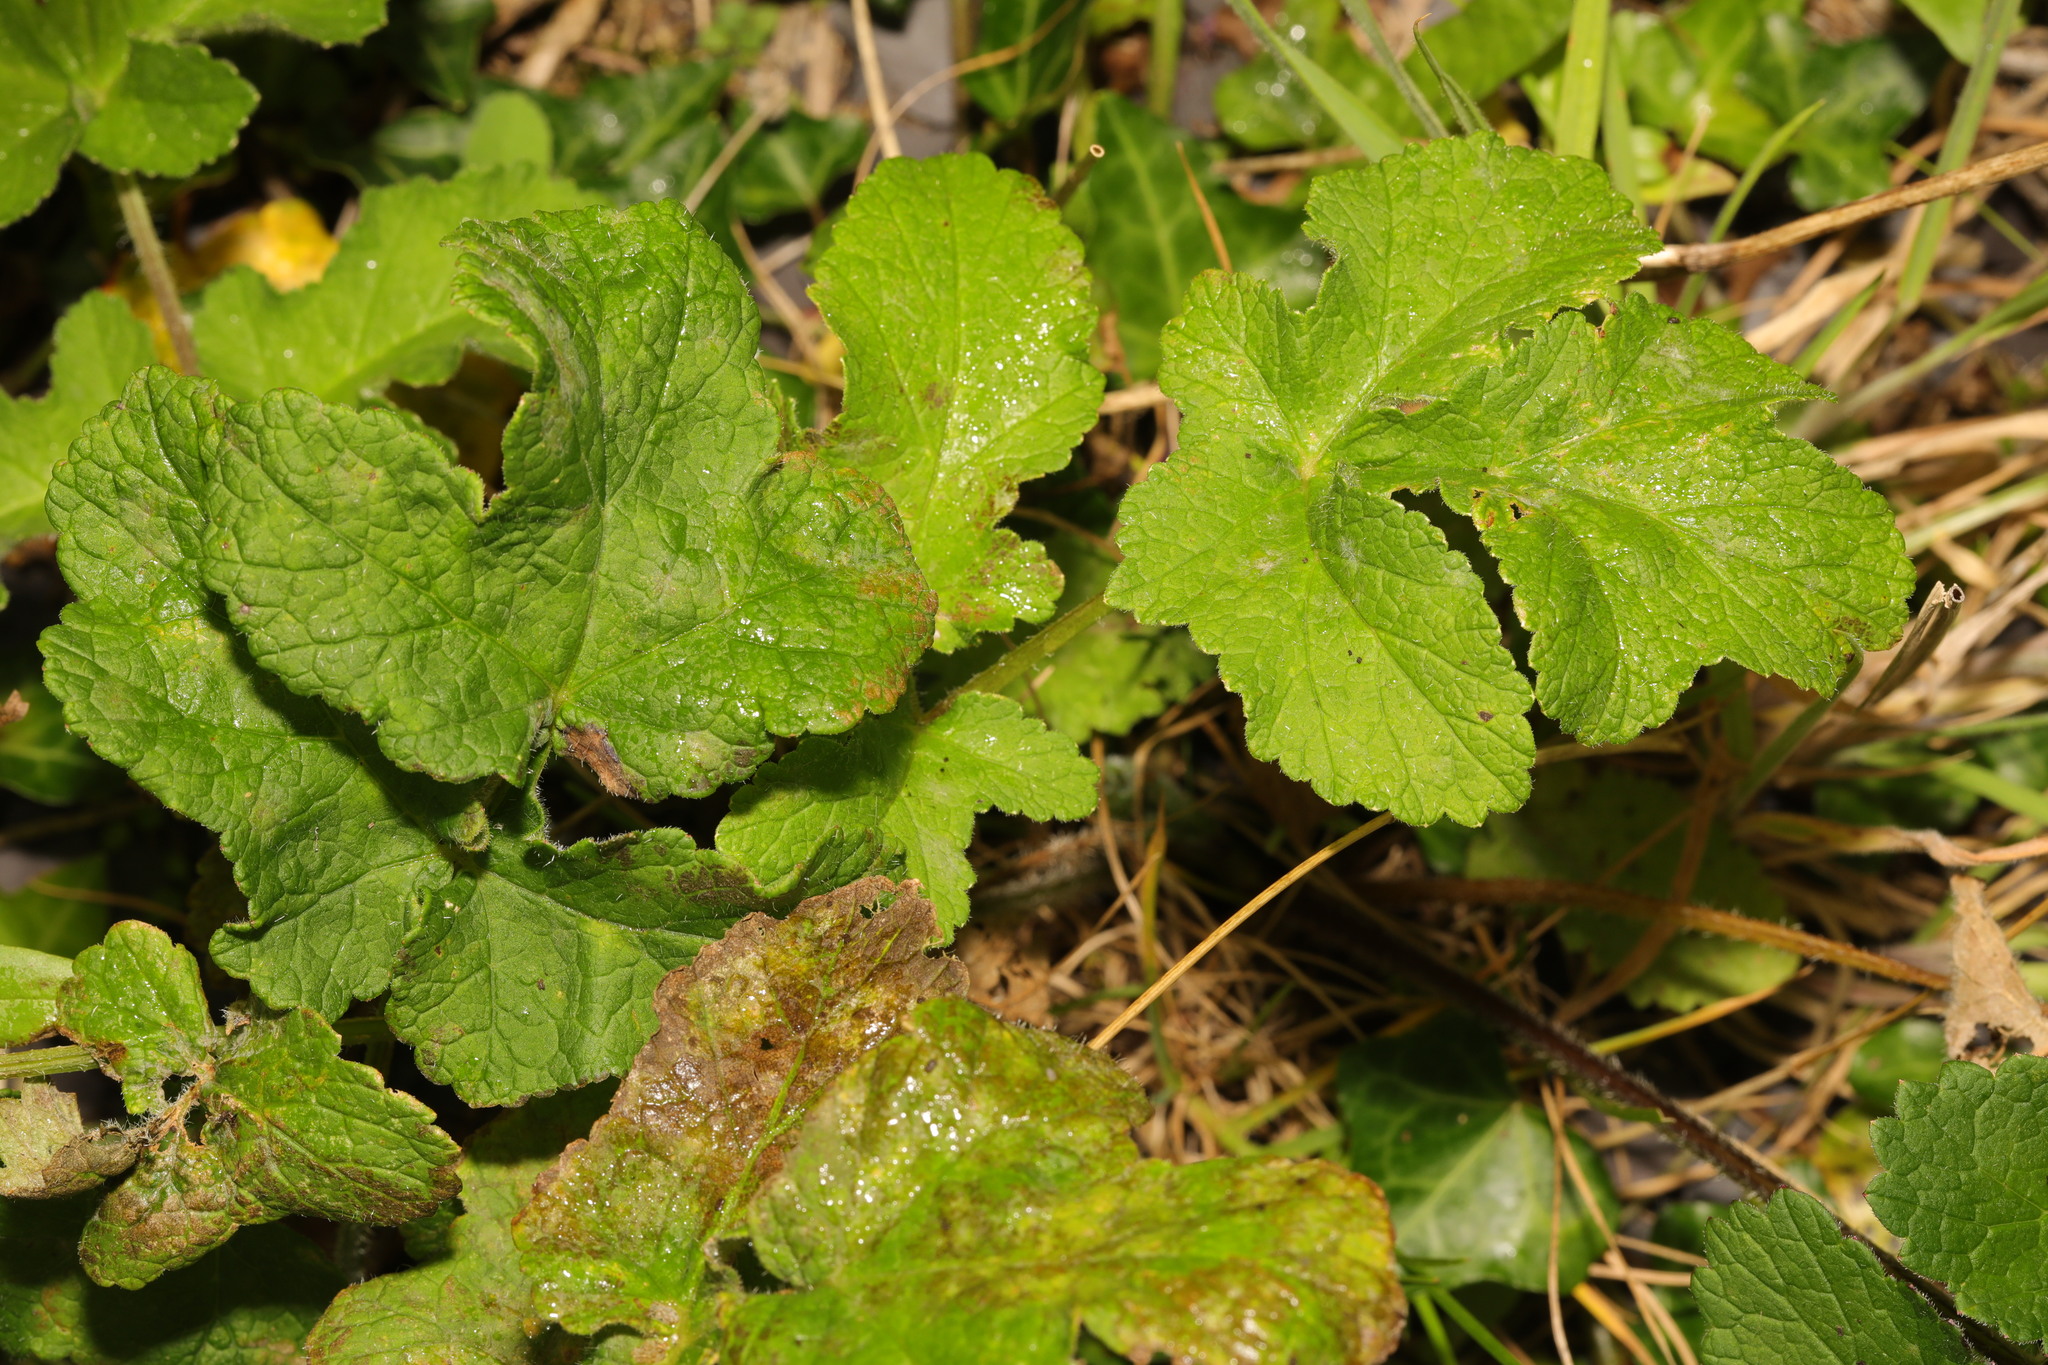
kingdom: Plantae
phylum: Tracheophyta
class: Magnoliopsida
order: Apiales
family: Apiaceae
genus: Heracleum
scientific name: Heracleum sphondylium
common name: Hogweed
